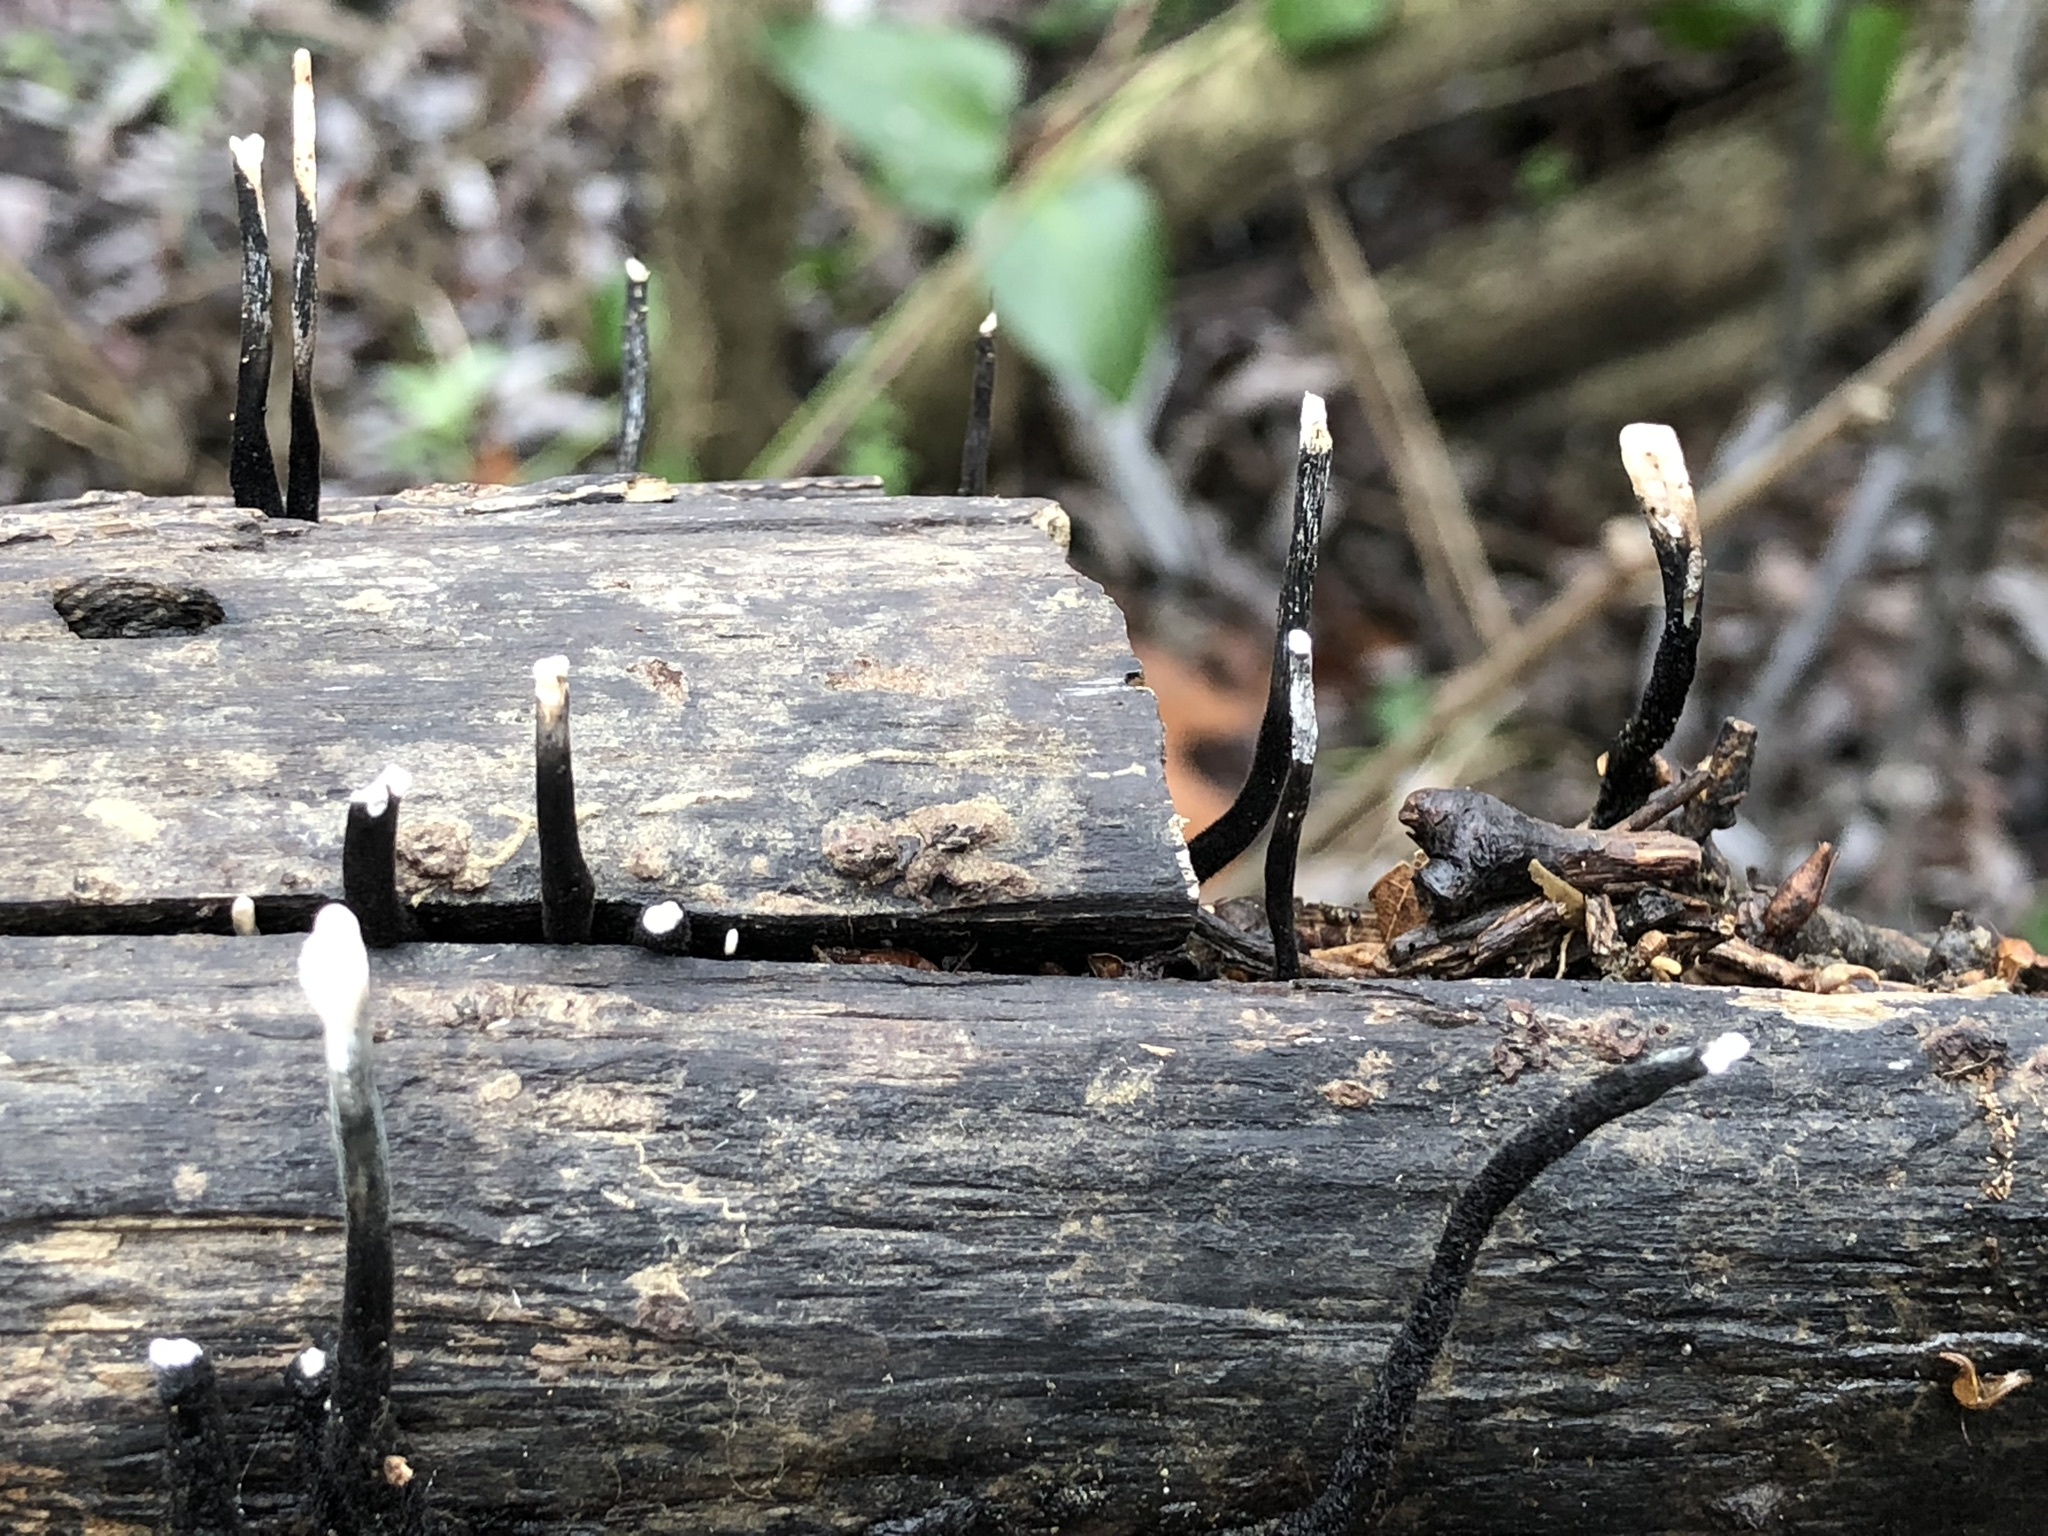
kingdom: Fungi
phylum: Ascomycota
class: Sordariomycetes
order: Xylariales
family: Xylariaceae
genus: Xylaria
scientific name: Xylaria hypoxylon
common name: Candle-snuff fungus
